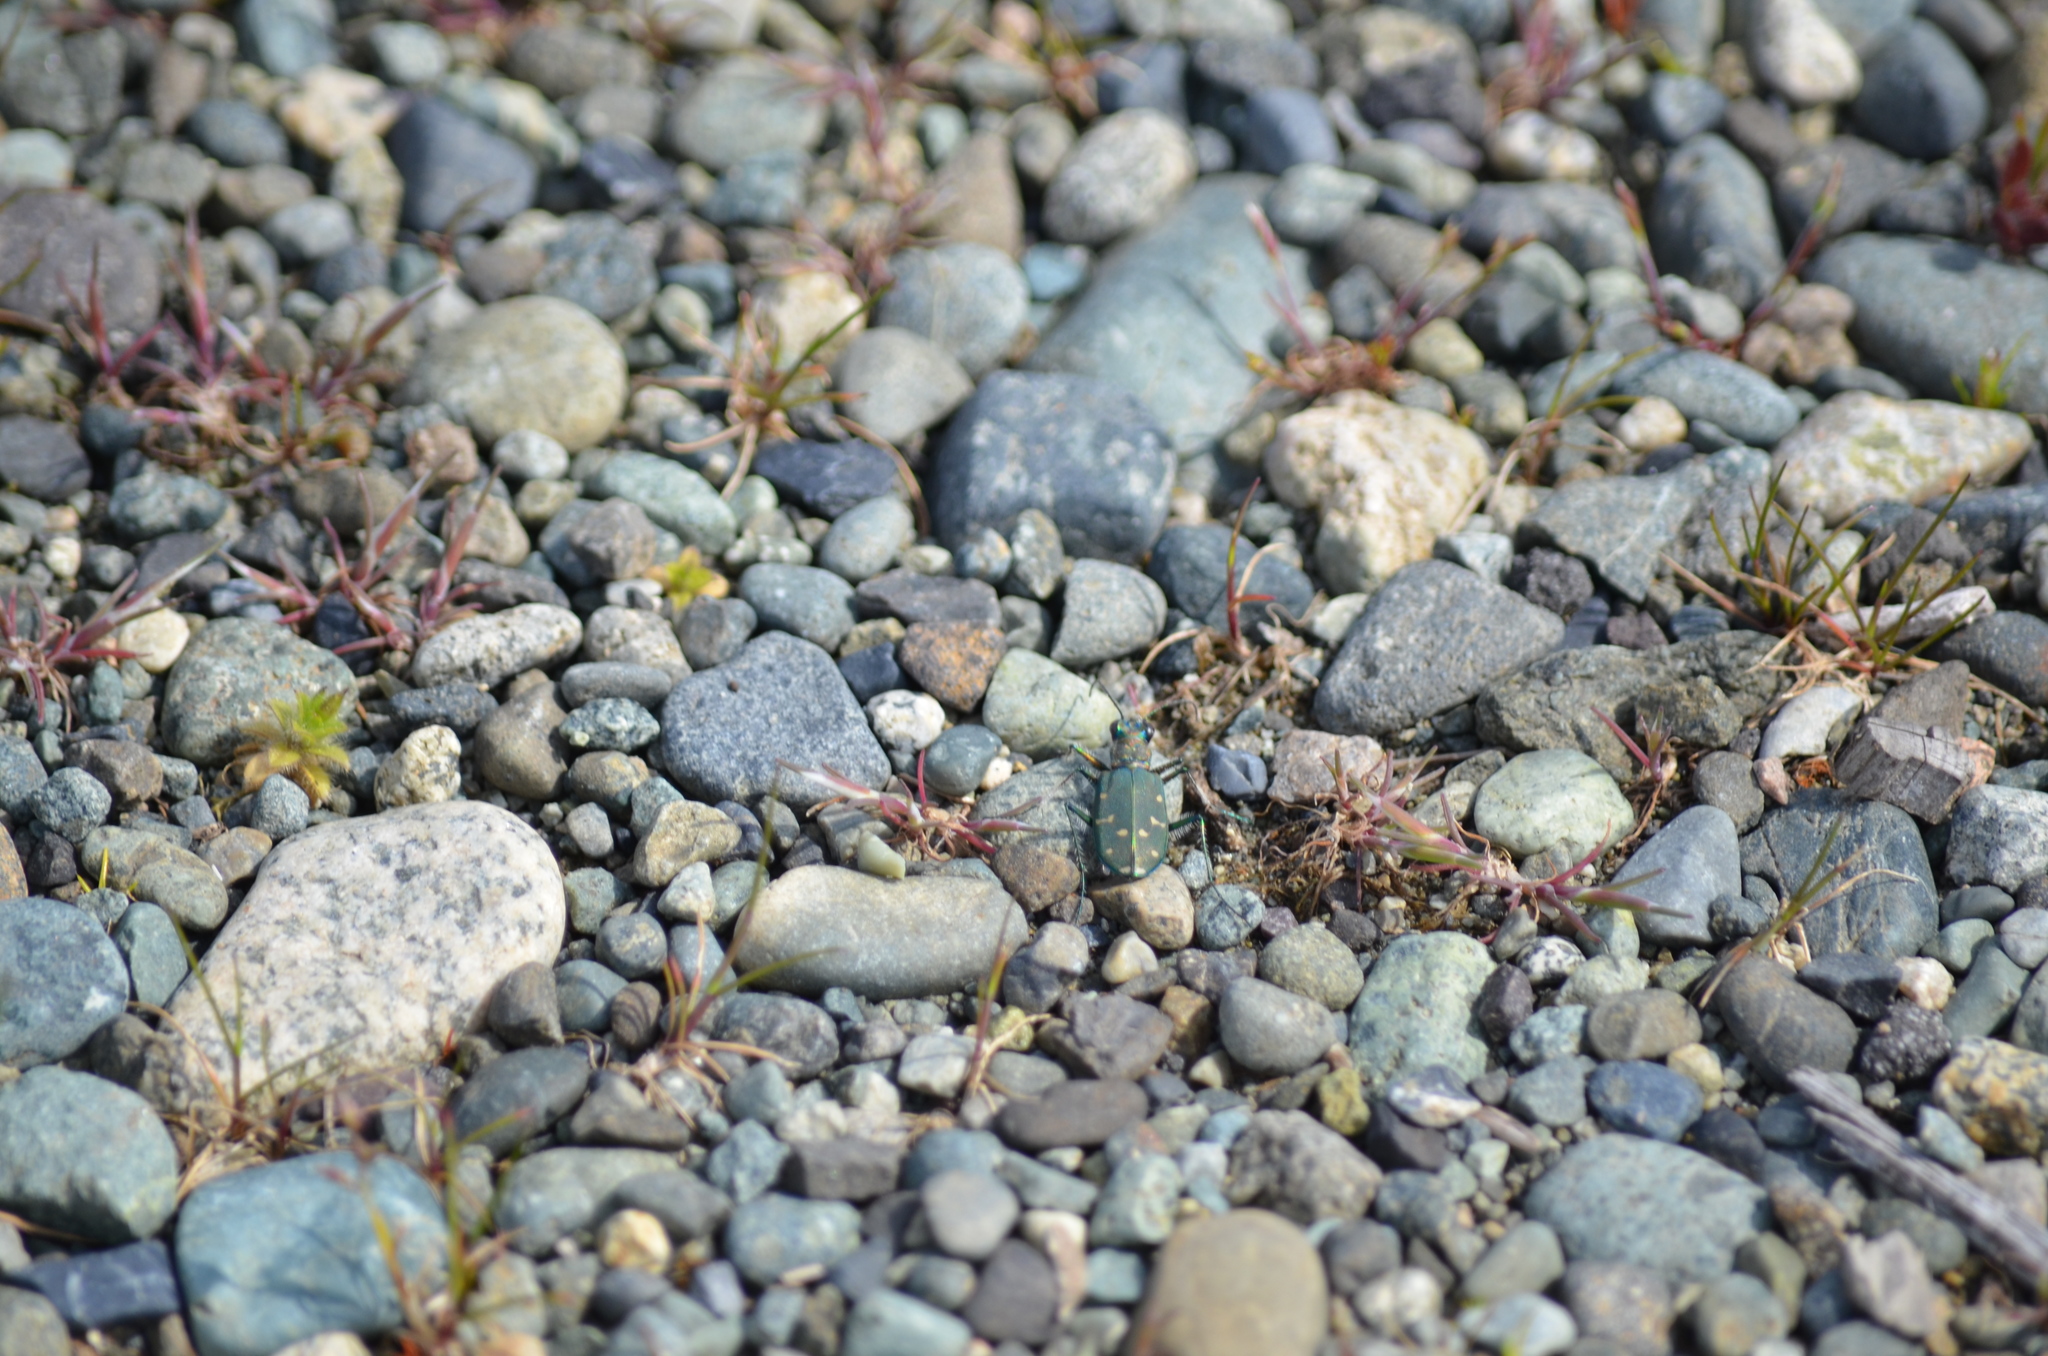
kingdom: Animalia
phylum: Arthropoda
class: Insecta
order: Coleoptera
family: Carabidae
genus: Cicindela
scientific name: Cicindela oregona
